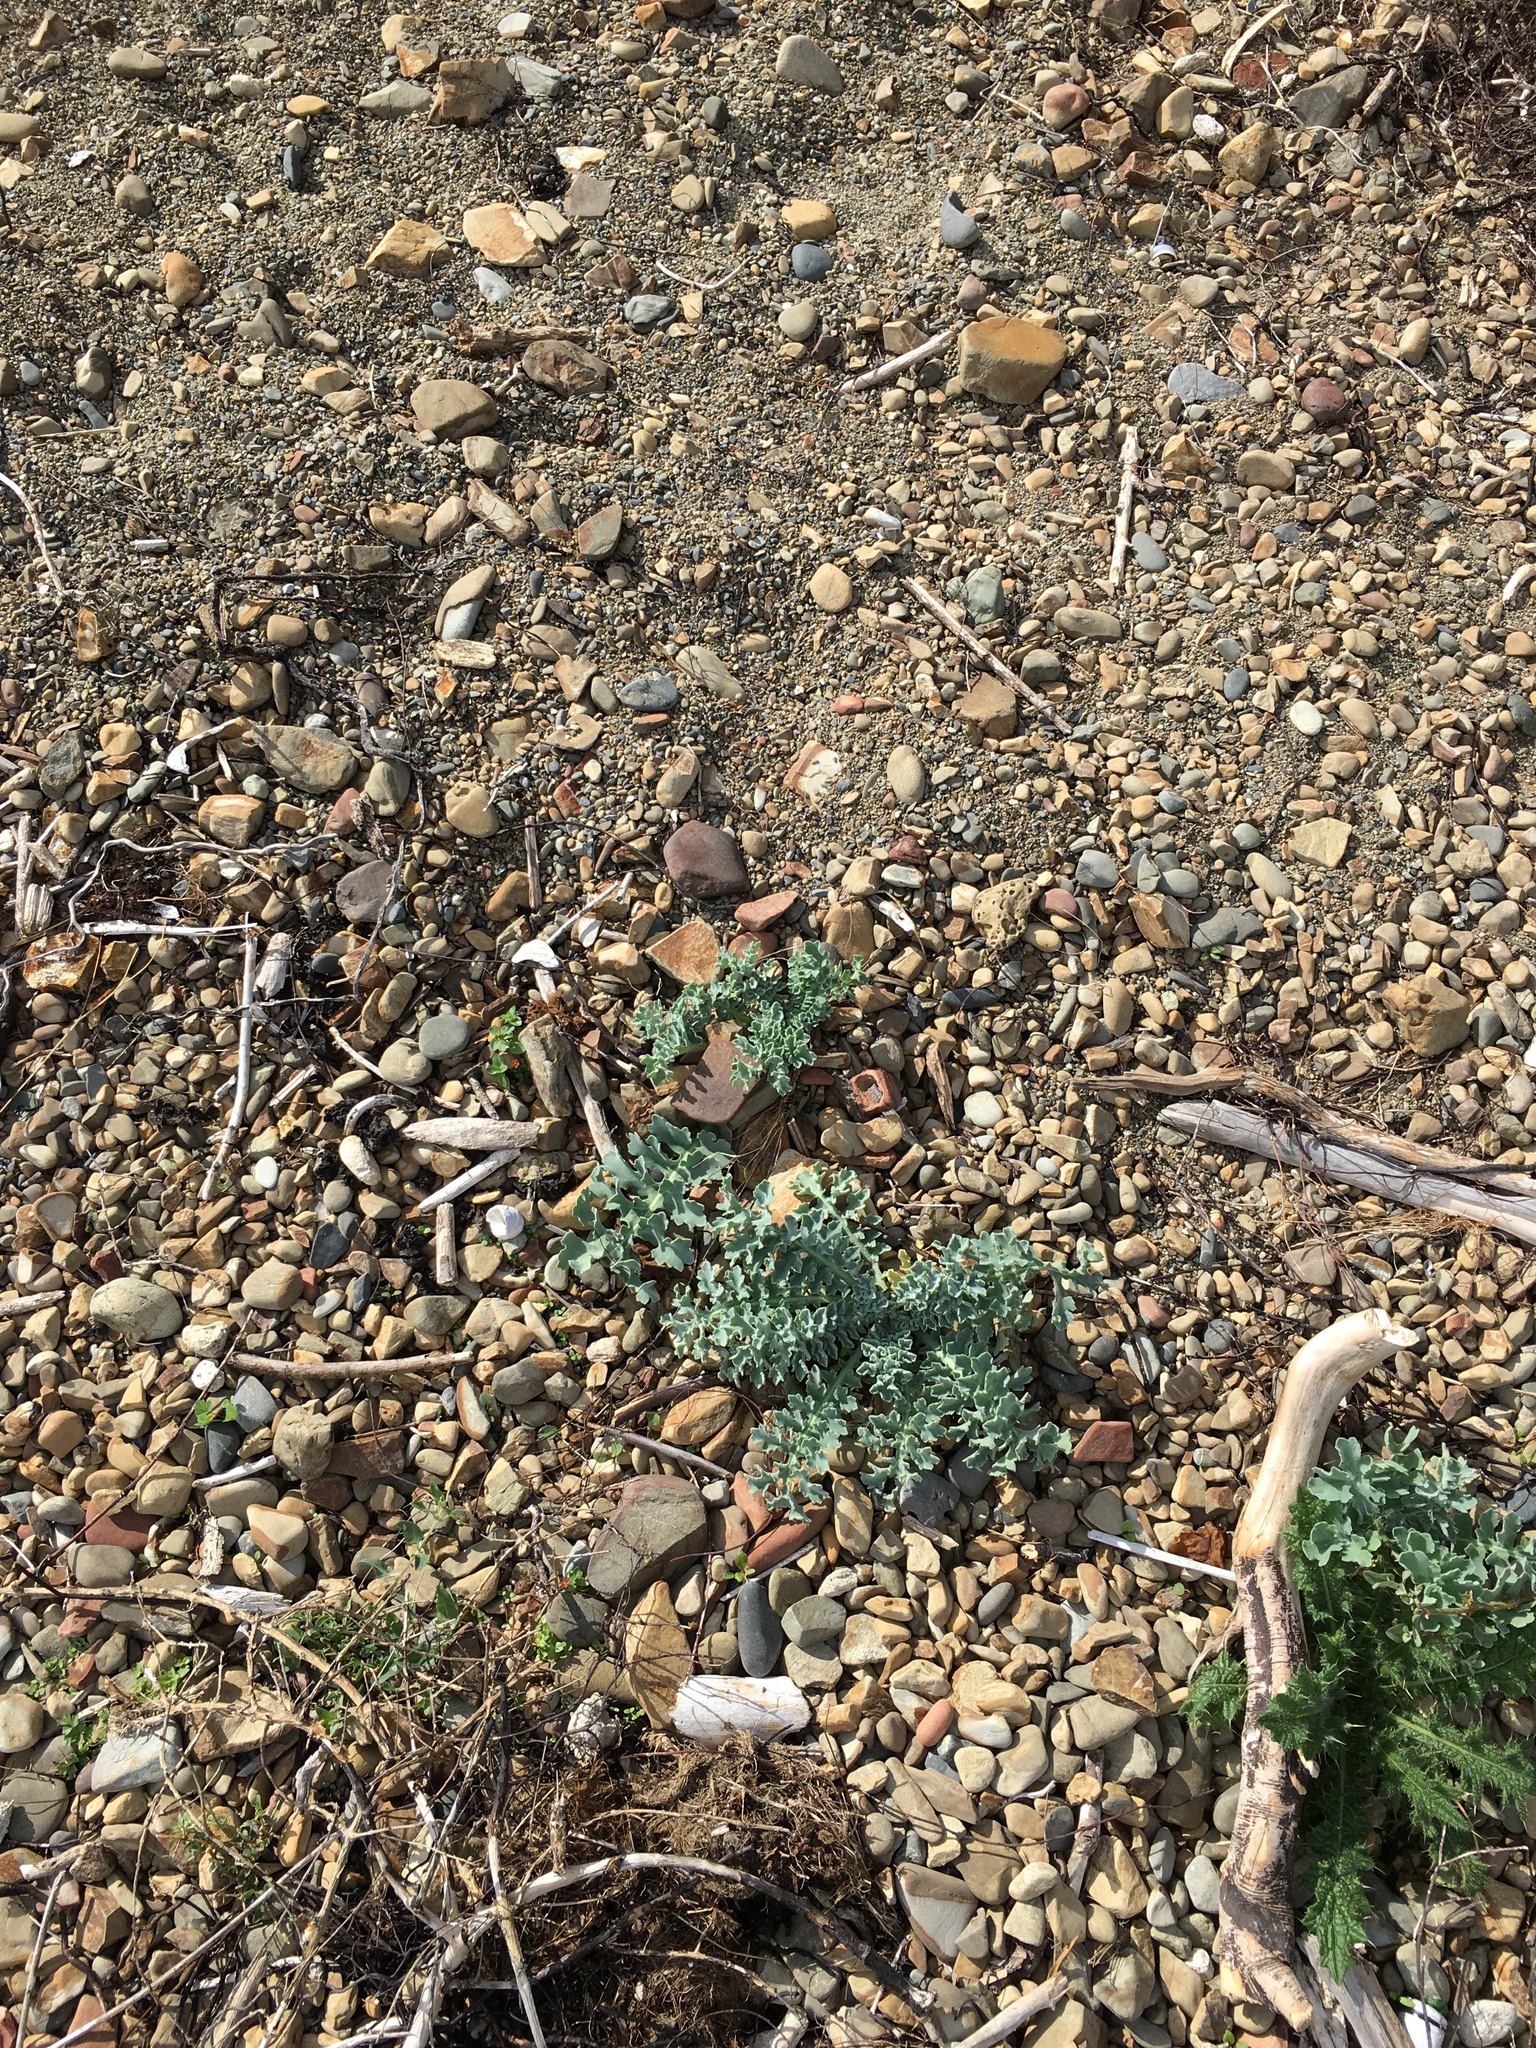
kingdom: Plantae
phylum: Tracheophyta
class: Magnoliopsida
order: Ranunculales
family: Papaveraceae
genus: Glaucium
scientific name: Glaucium flavum
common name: Yellow horned-poppy
